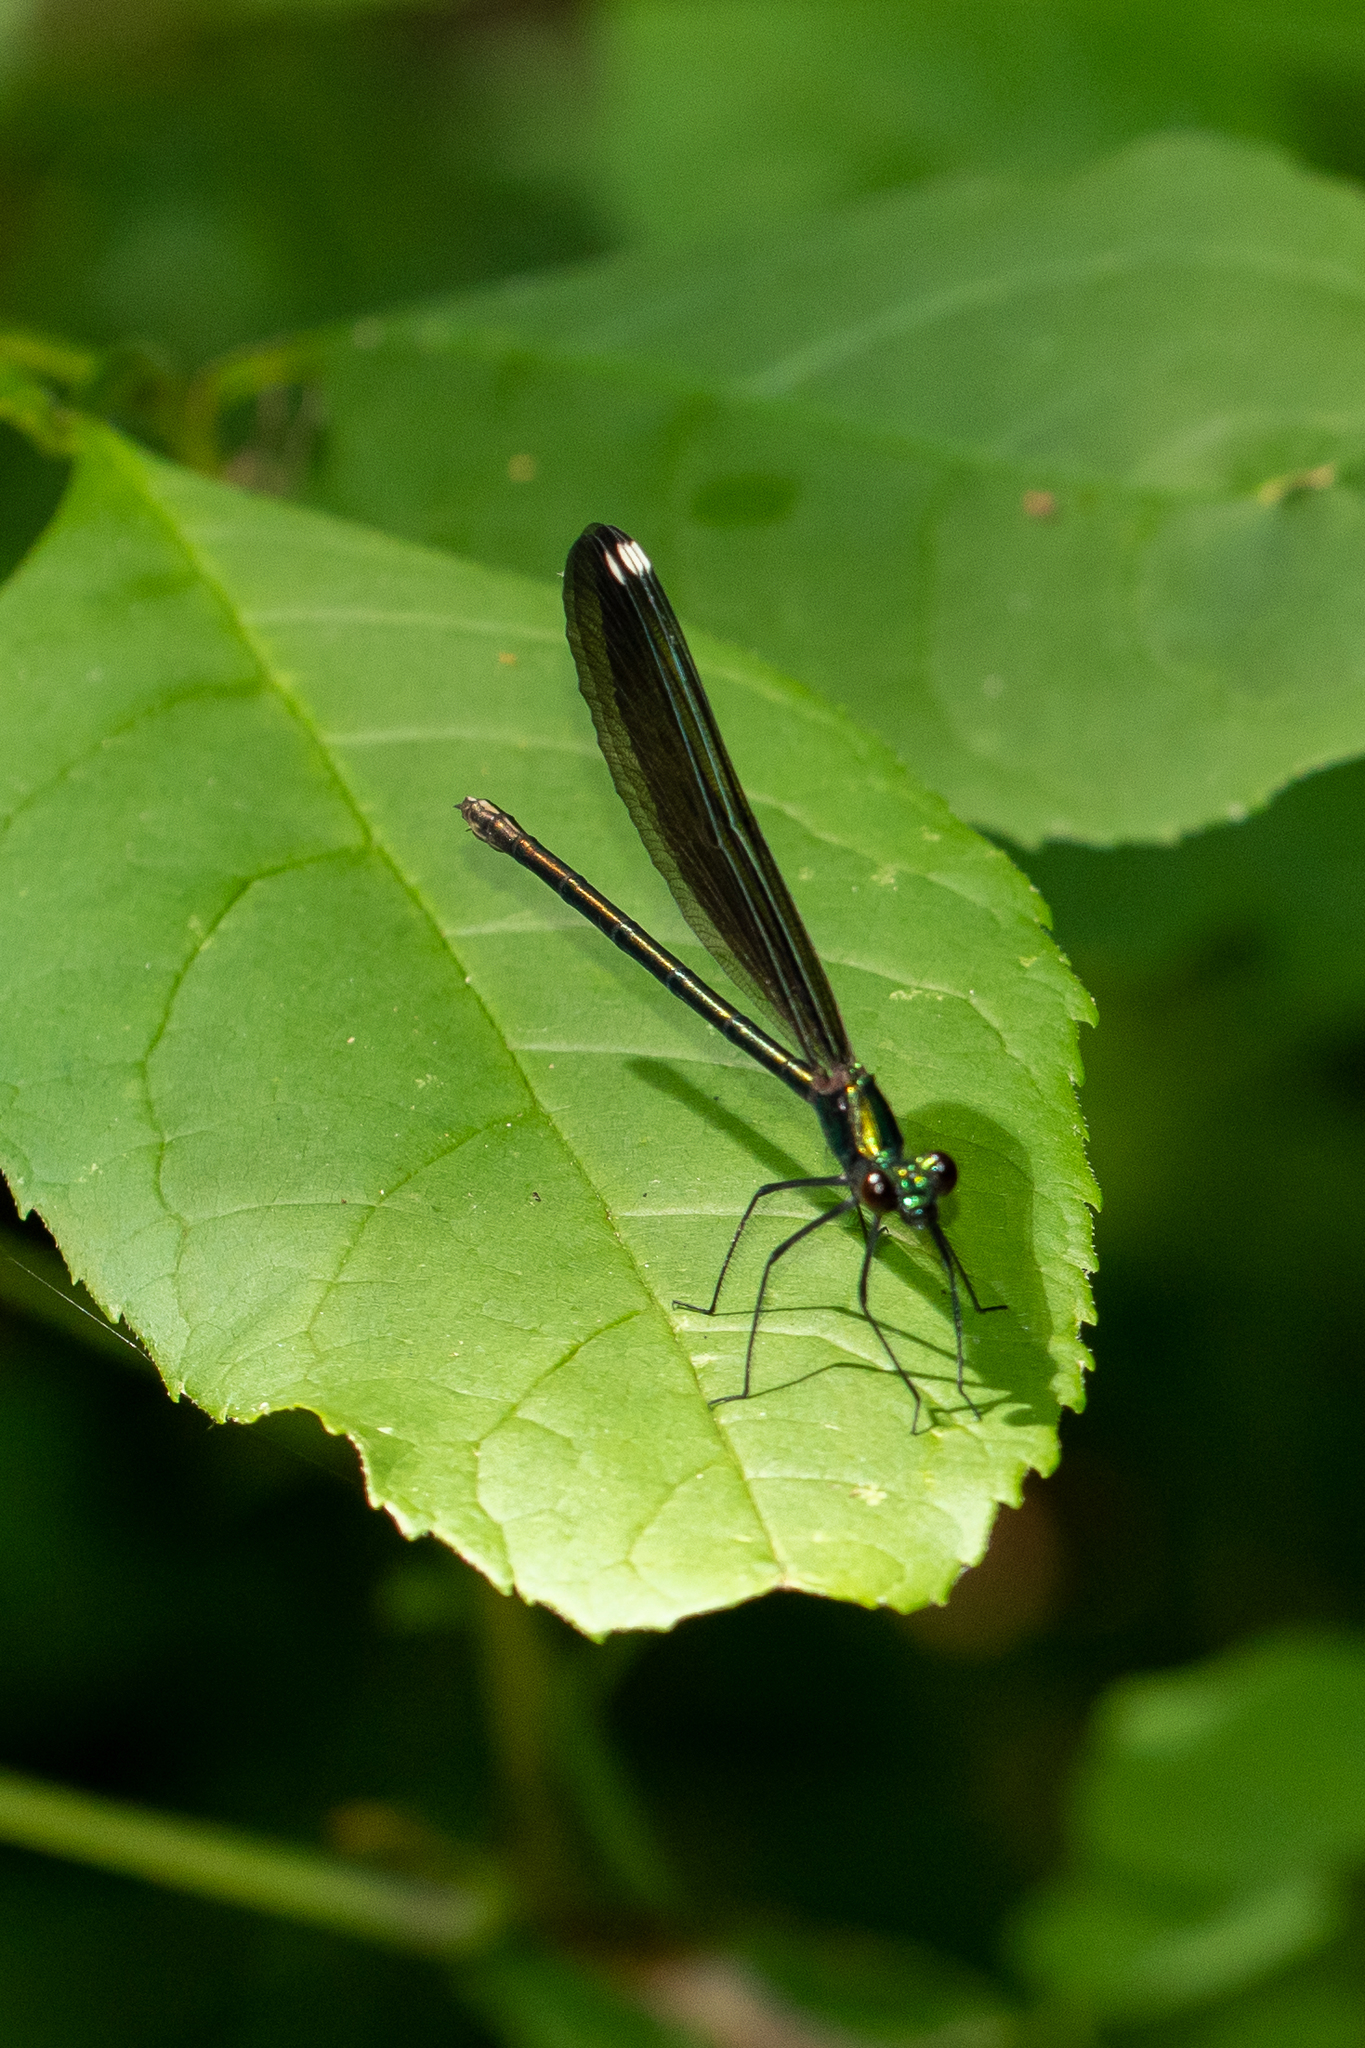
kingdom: Animalia
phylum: Arthropoda
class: Insecta
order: Odonata
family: Calopterygidae
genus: Calopteryx
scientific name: Calopteryx maculata
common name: Ebony jewelwing
